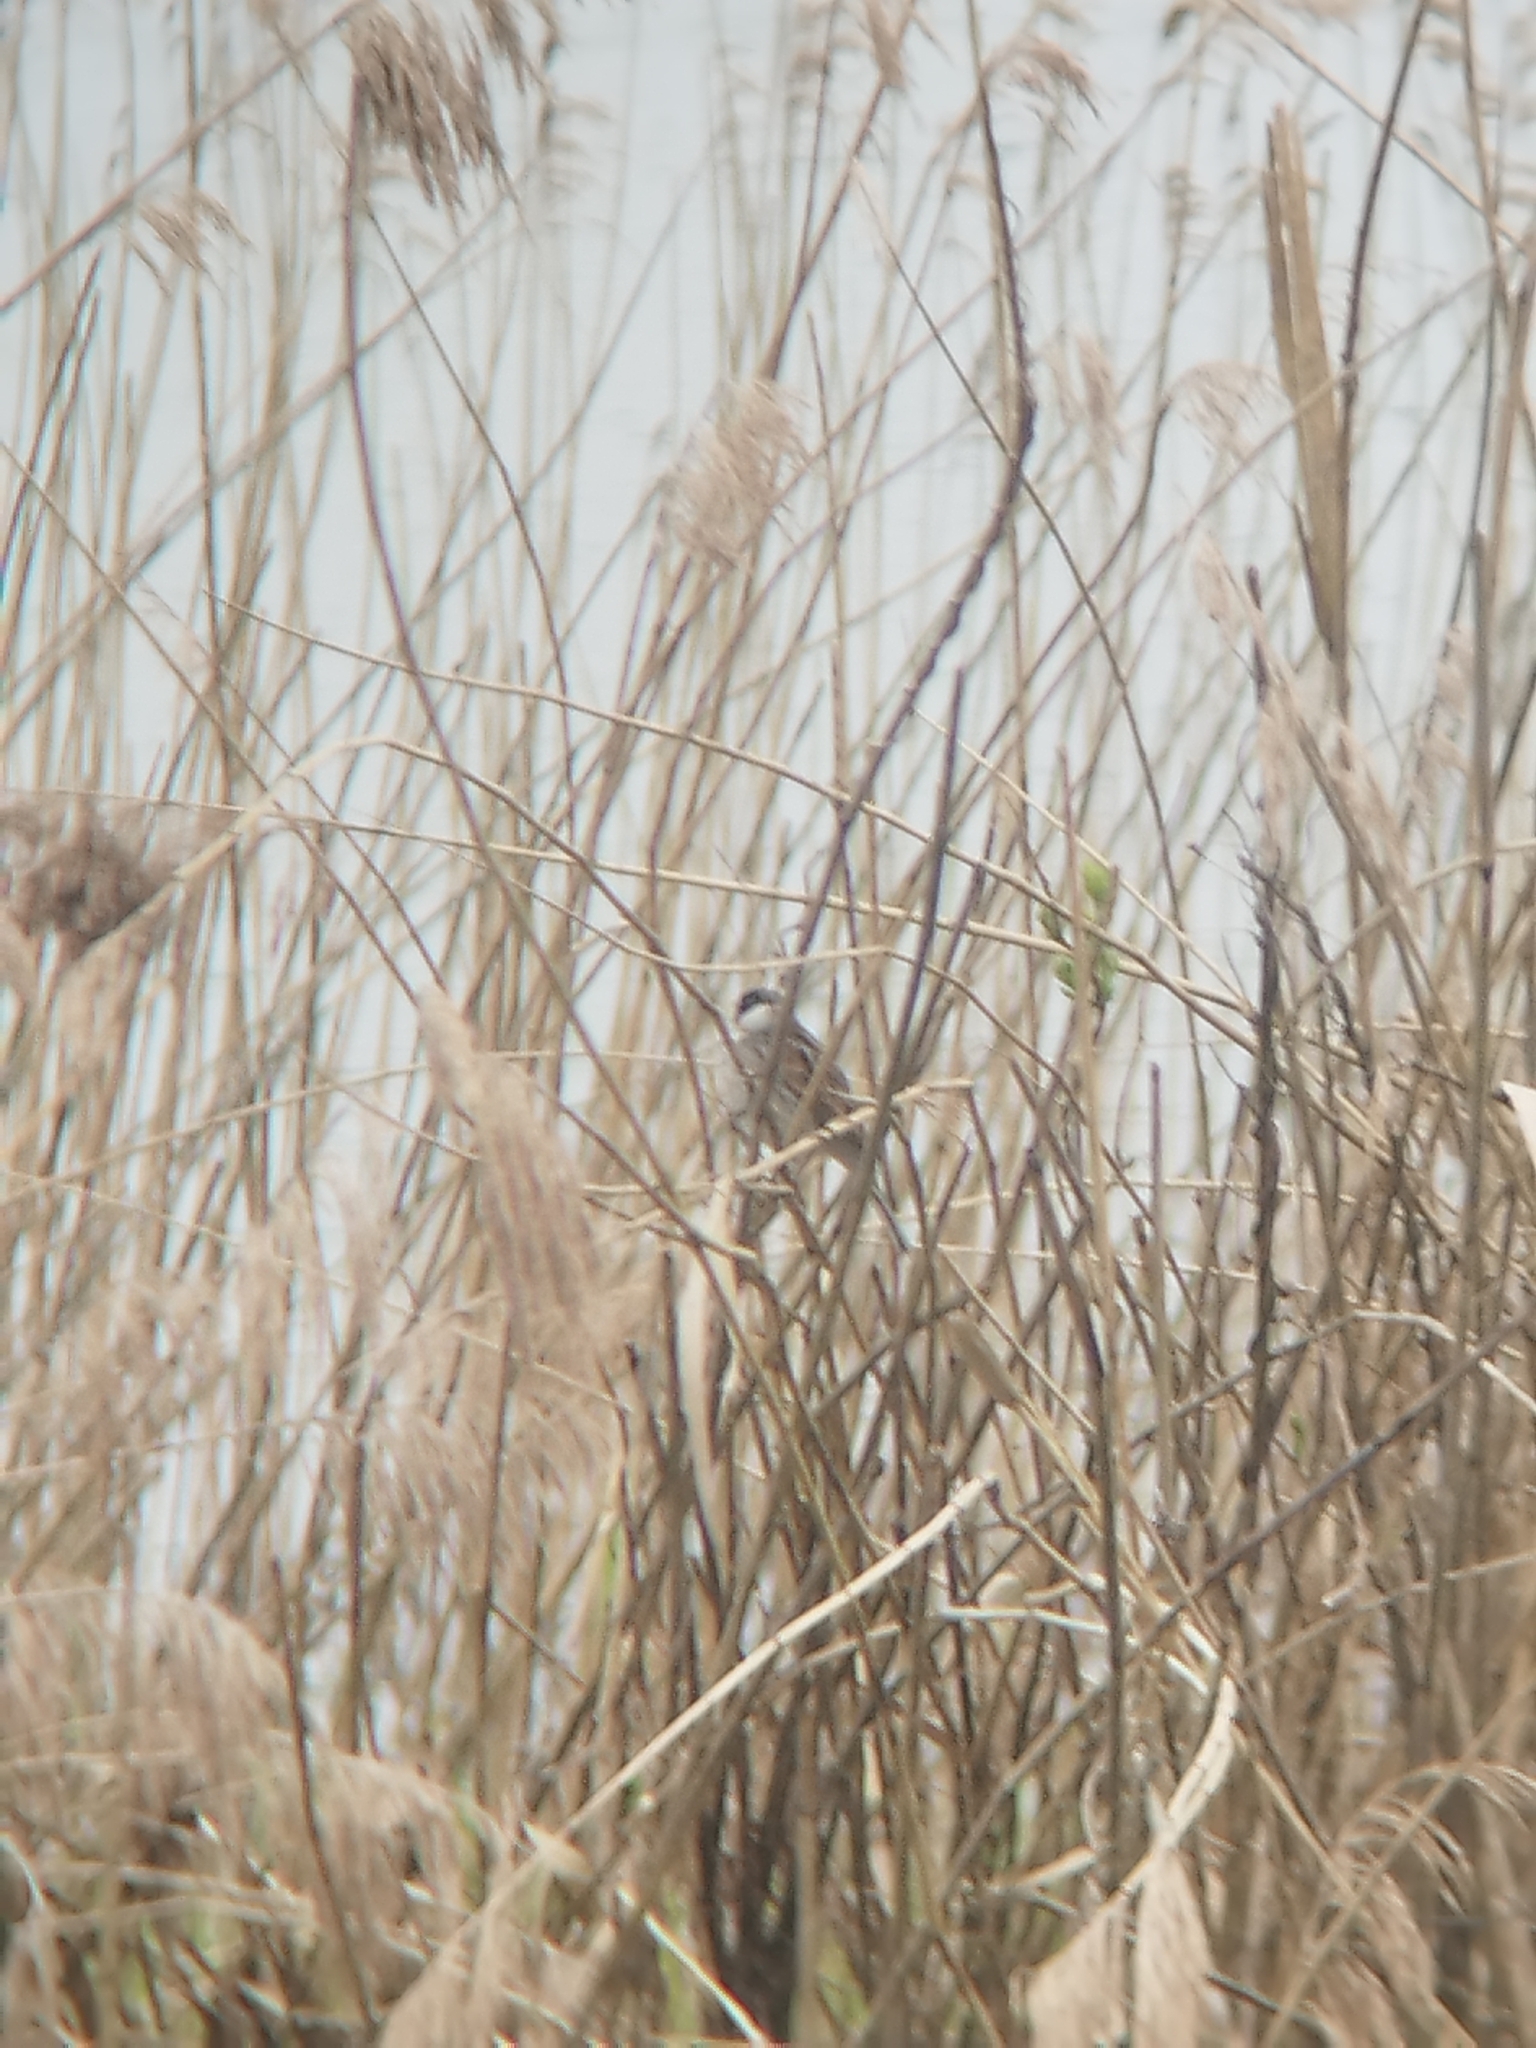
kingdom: Animalia
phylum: Chordata
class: Aves
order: Passeriformes
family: Emberizidae
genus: Emberiza
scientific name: Emberiza schoeniclus
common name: Reed bunting
